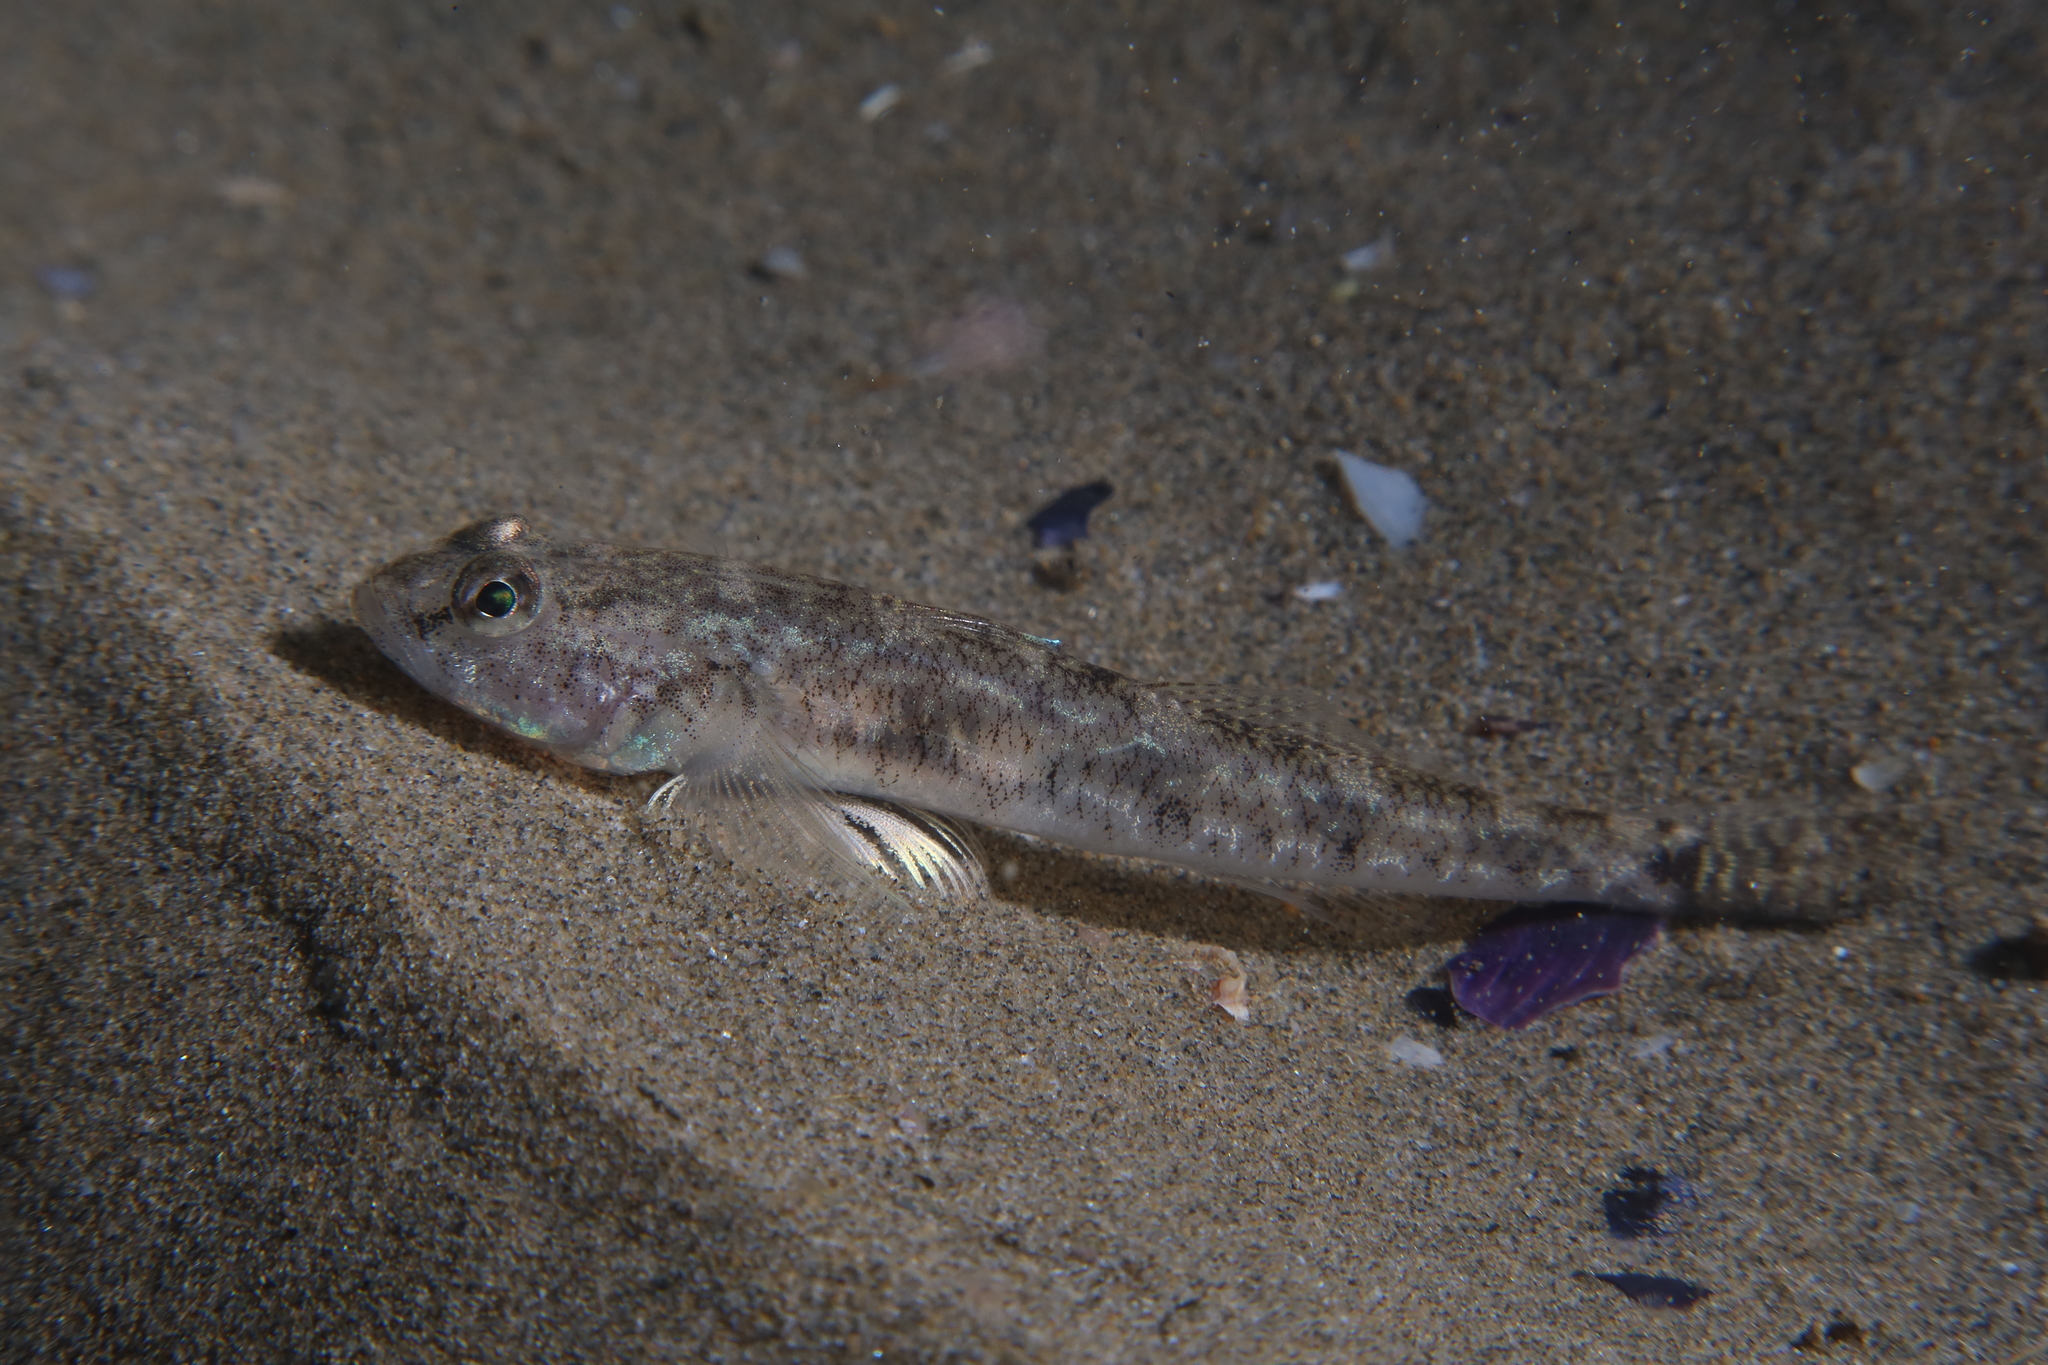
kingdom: Animalia
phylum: Chordata
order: Perciformes
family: Gobiidae
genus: Pomatoschistus
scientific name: Pomatoschistus minutus
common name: Sand goby
